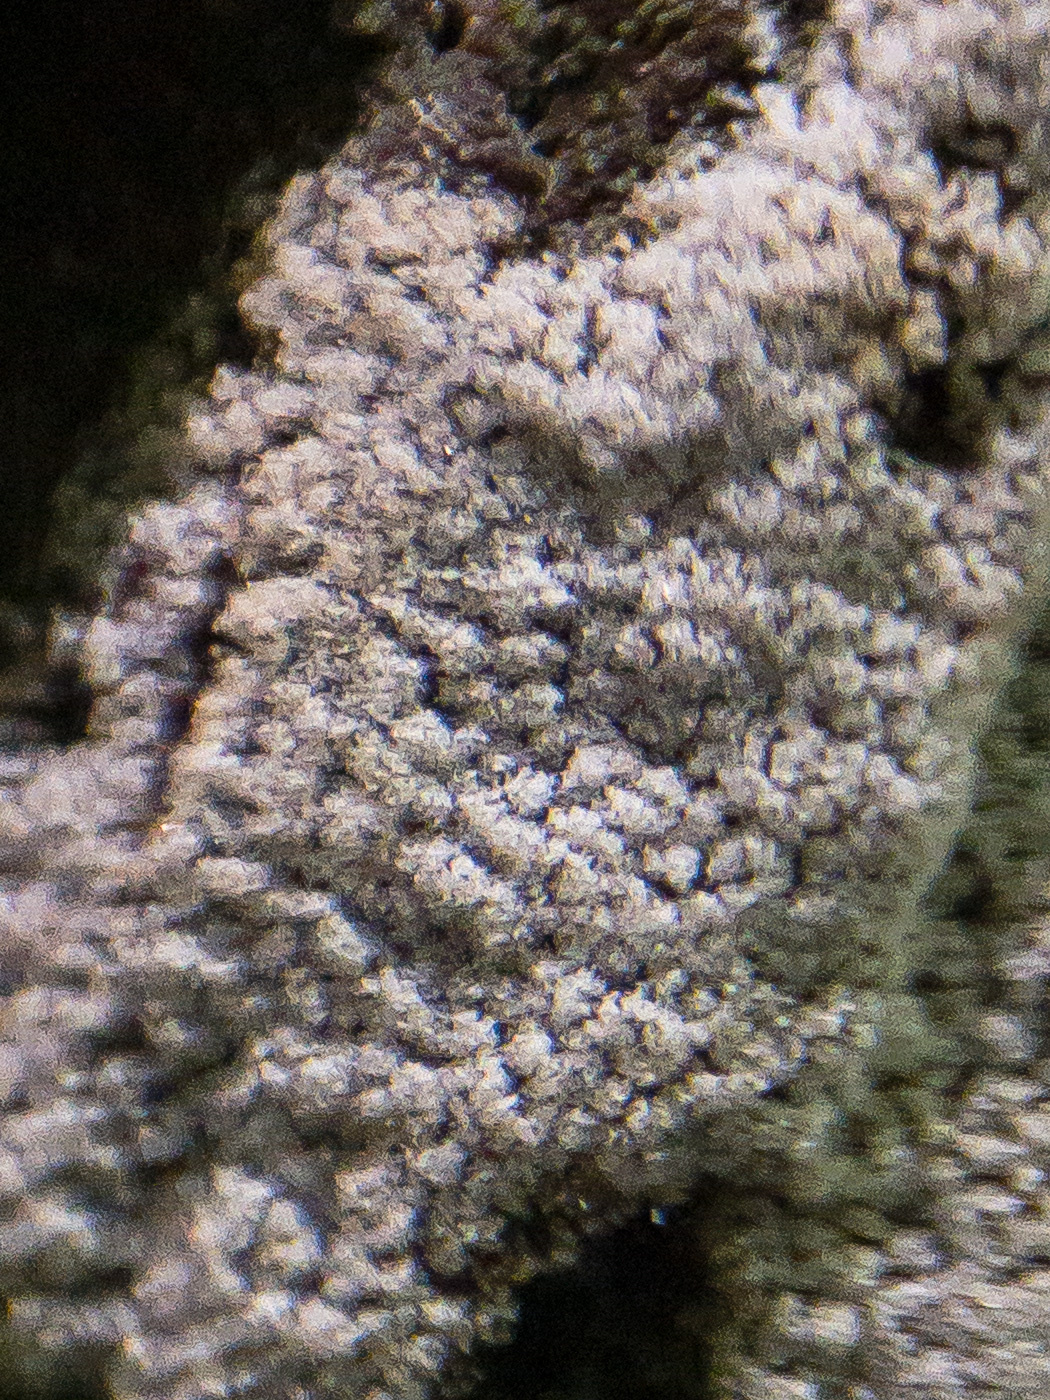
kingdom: Protozoa
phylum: Mycetozoa
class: Protosteliomycetes
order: Ceratiomyxales
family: Ceratiomyxaceae
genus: Ceratiomyxa
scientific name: Ceratiomyxa fruticulosa
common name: Honeycomb coral slime mold
